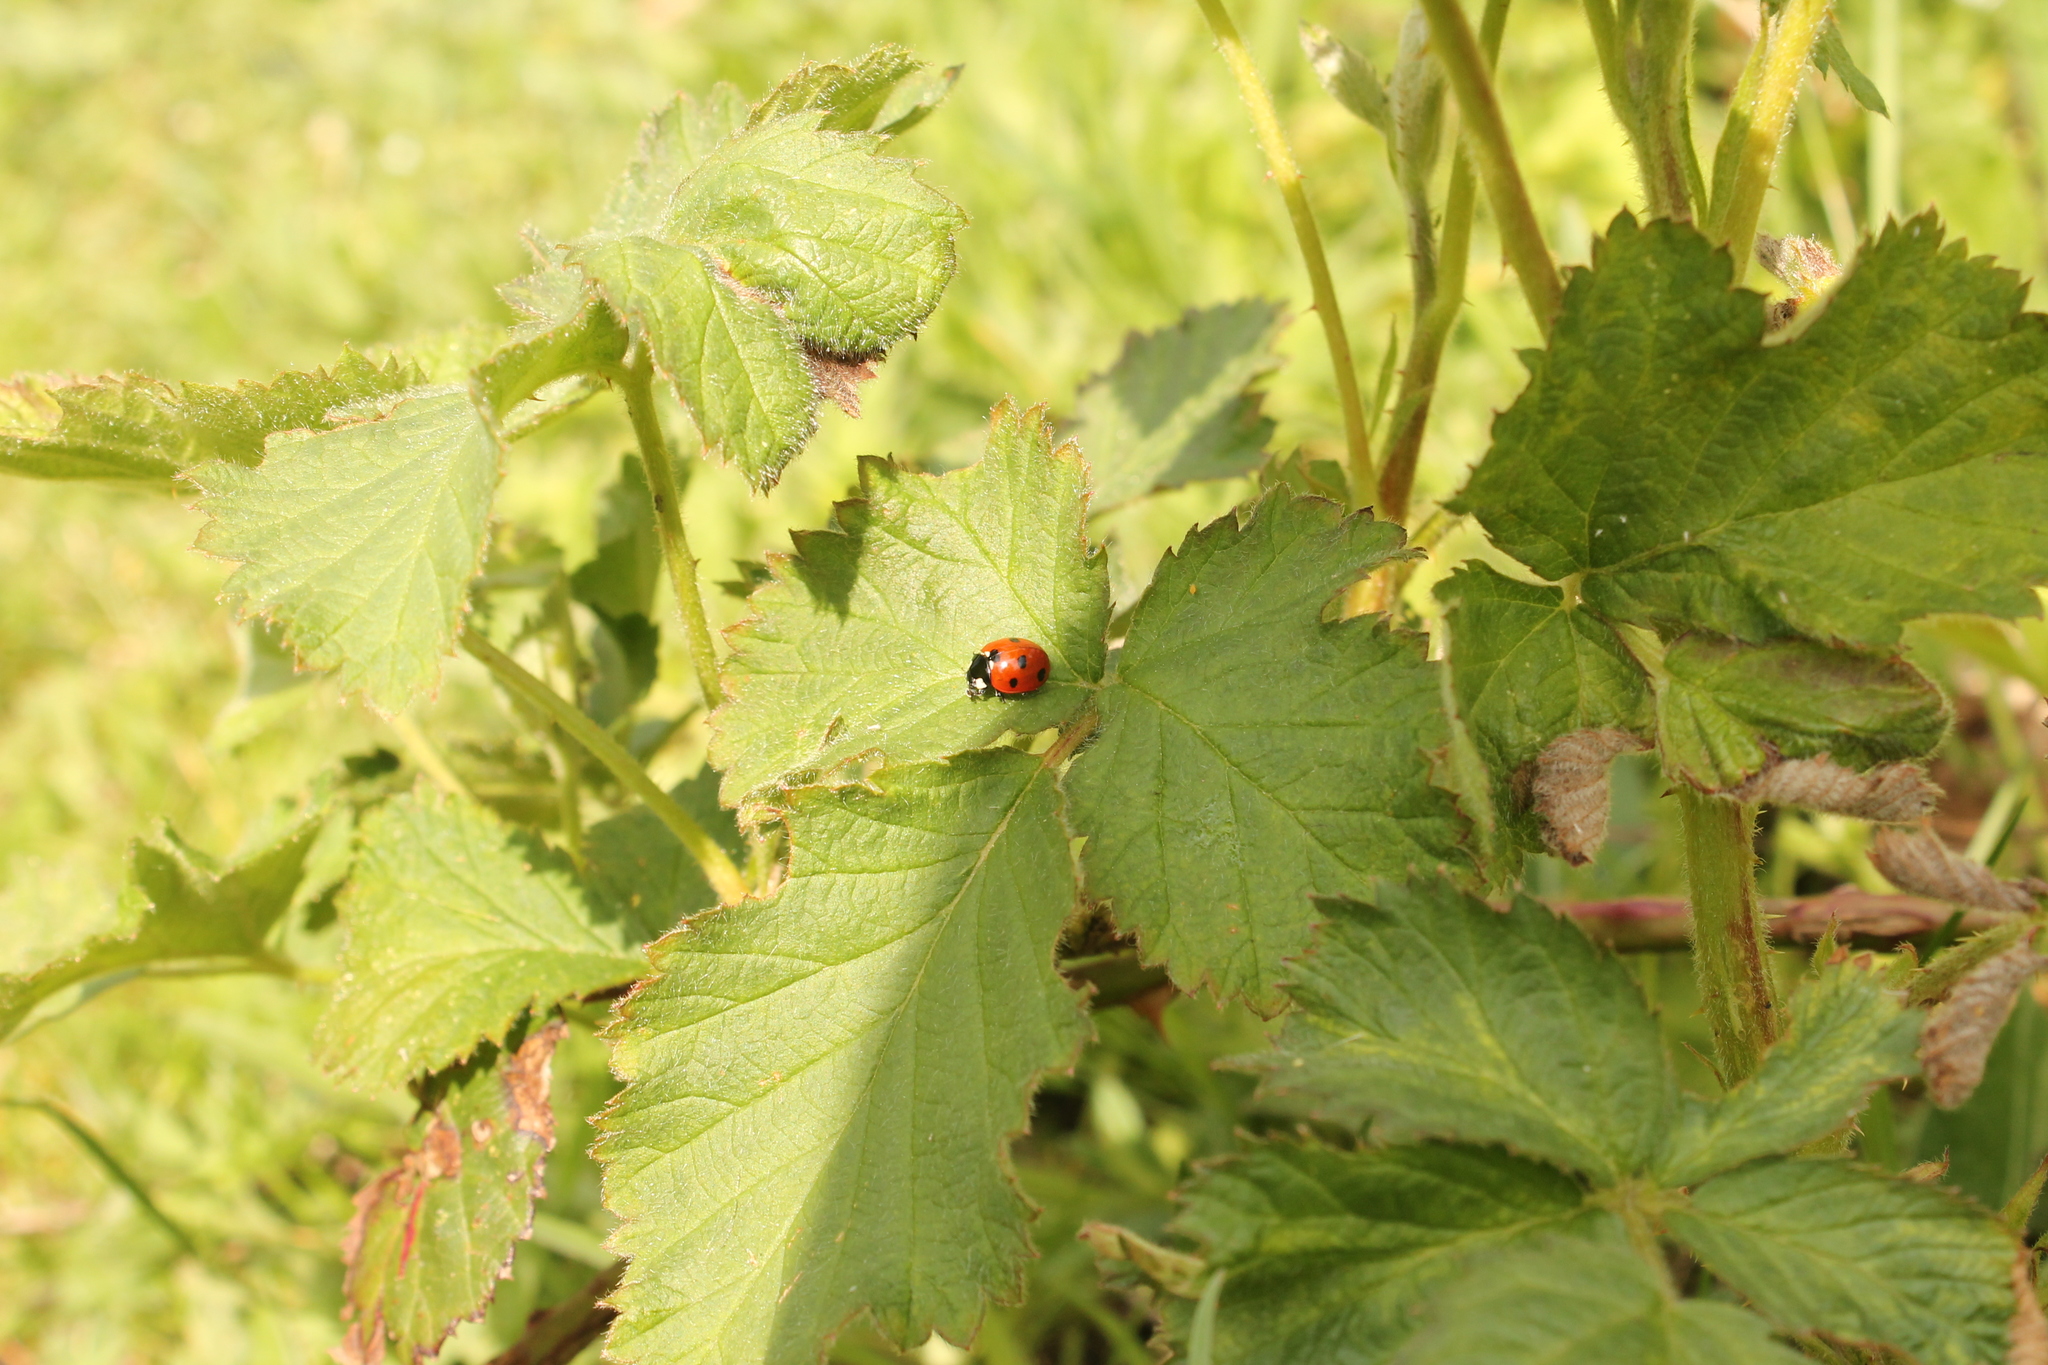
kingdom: Animalia
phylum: Arthropoda
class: Insecta
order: Coleoptera
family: Coccinellidae
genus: Coccinella
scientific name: Coccinella septempunctata
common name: Sevenspotted lady beetle
